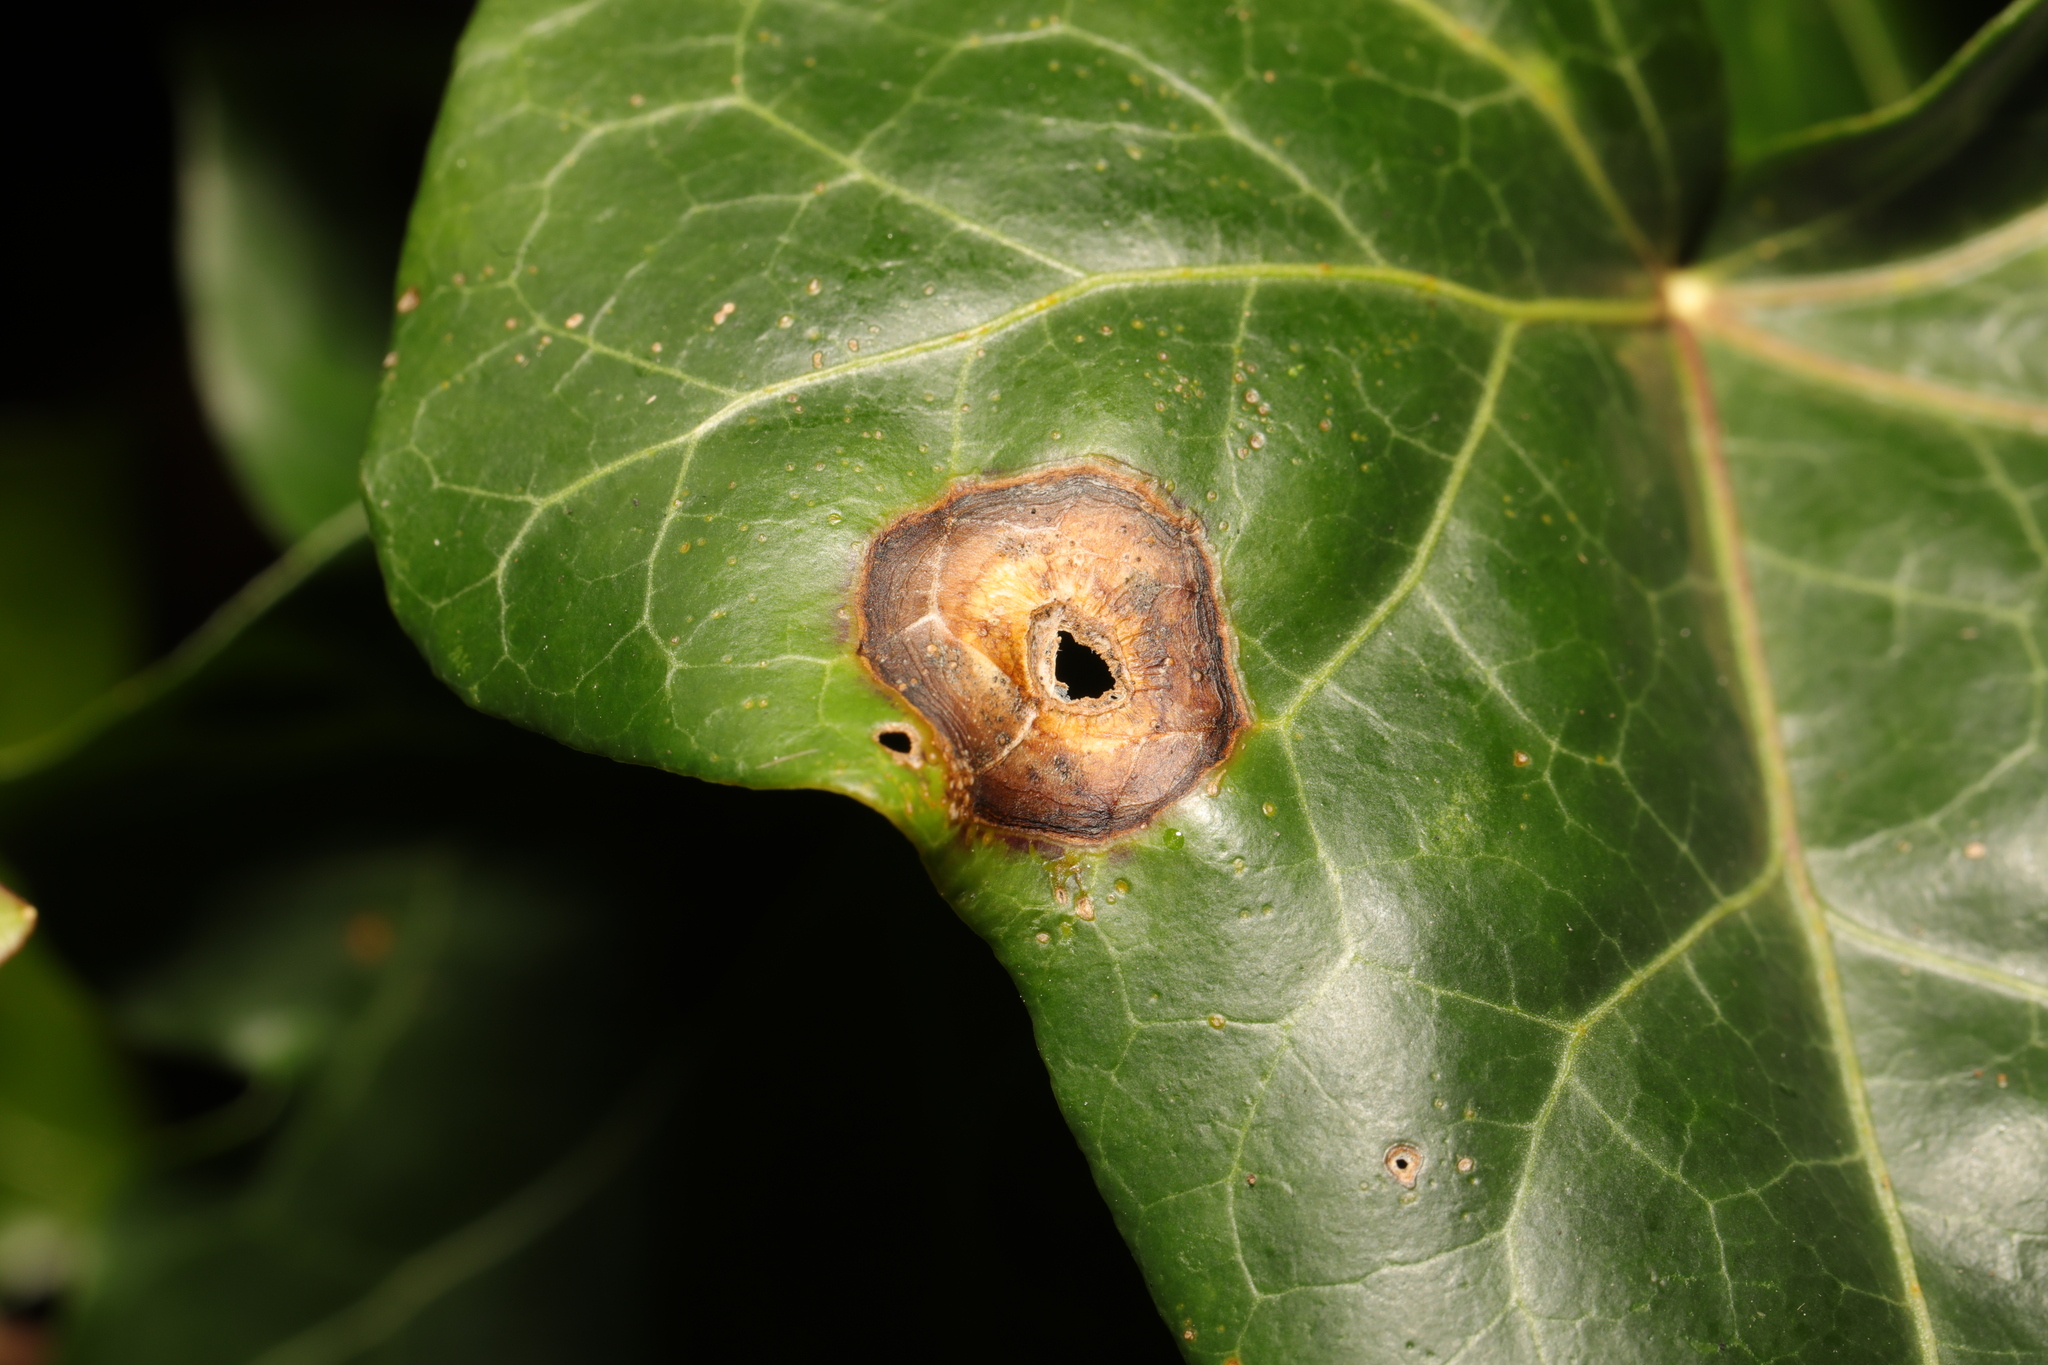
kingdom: Fungi
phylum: Ascomycota
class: Dothideomycetes
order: Pleosporales
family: Didymellaceae
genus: Boeremia
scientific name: Boeremia hedericola
